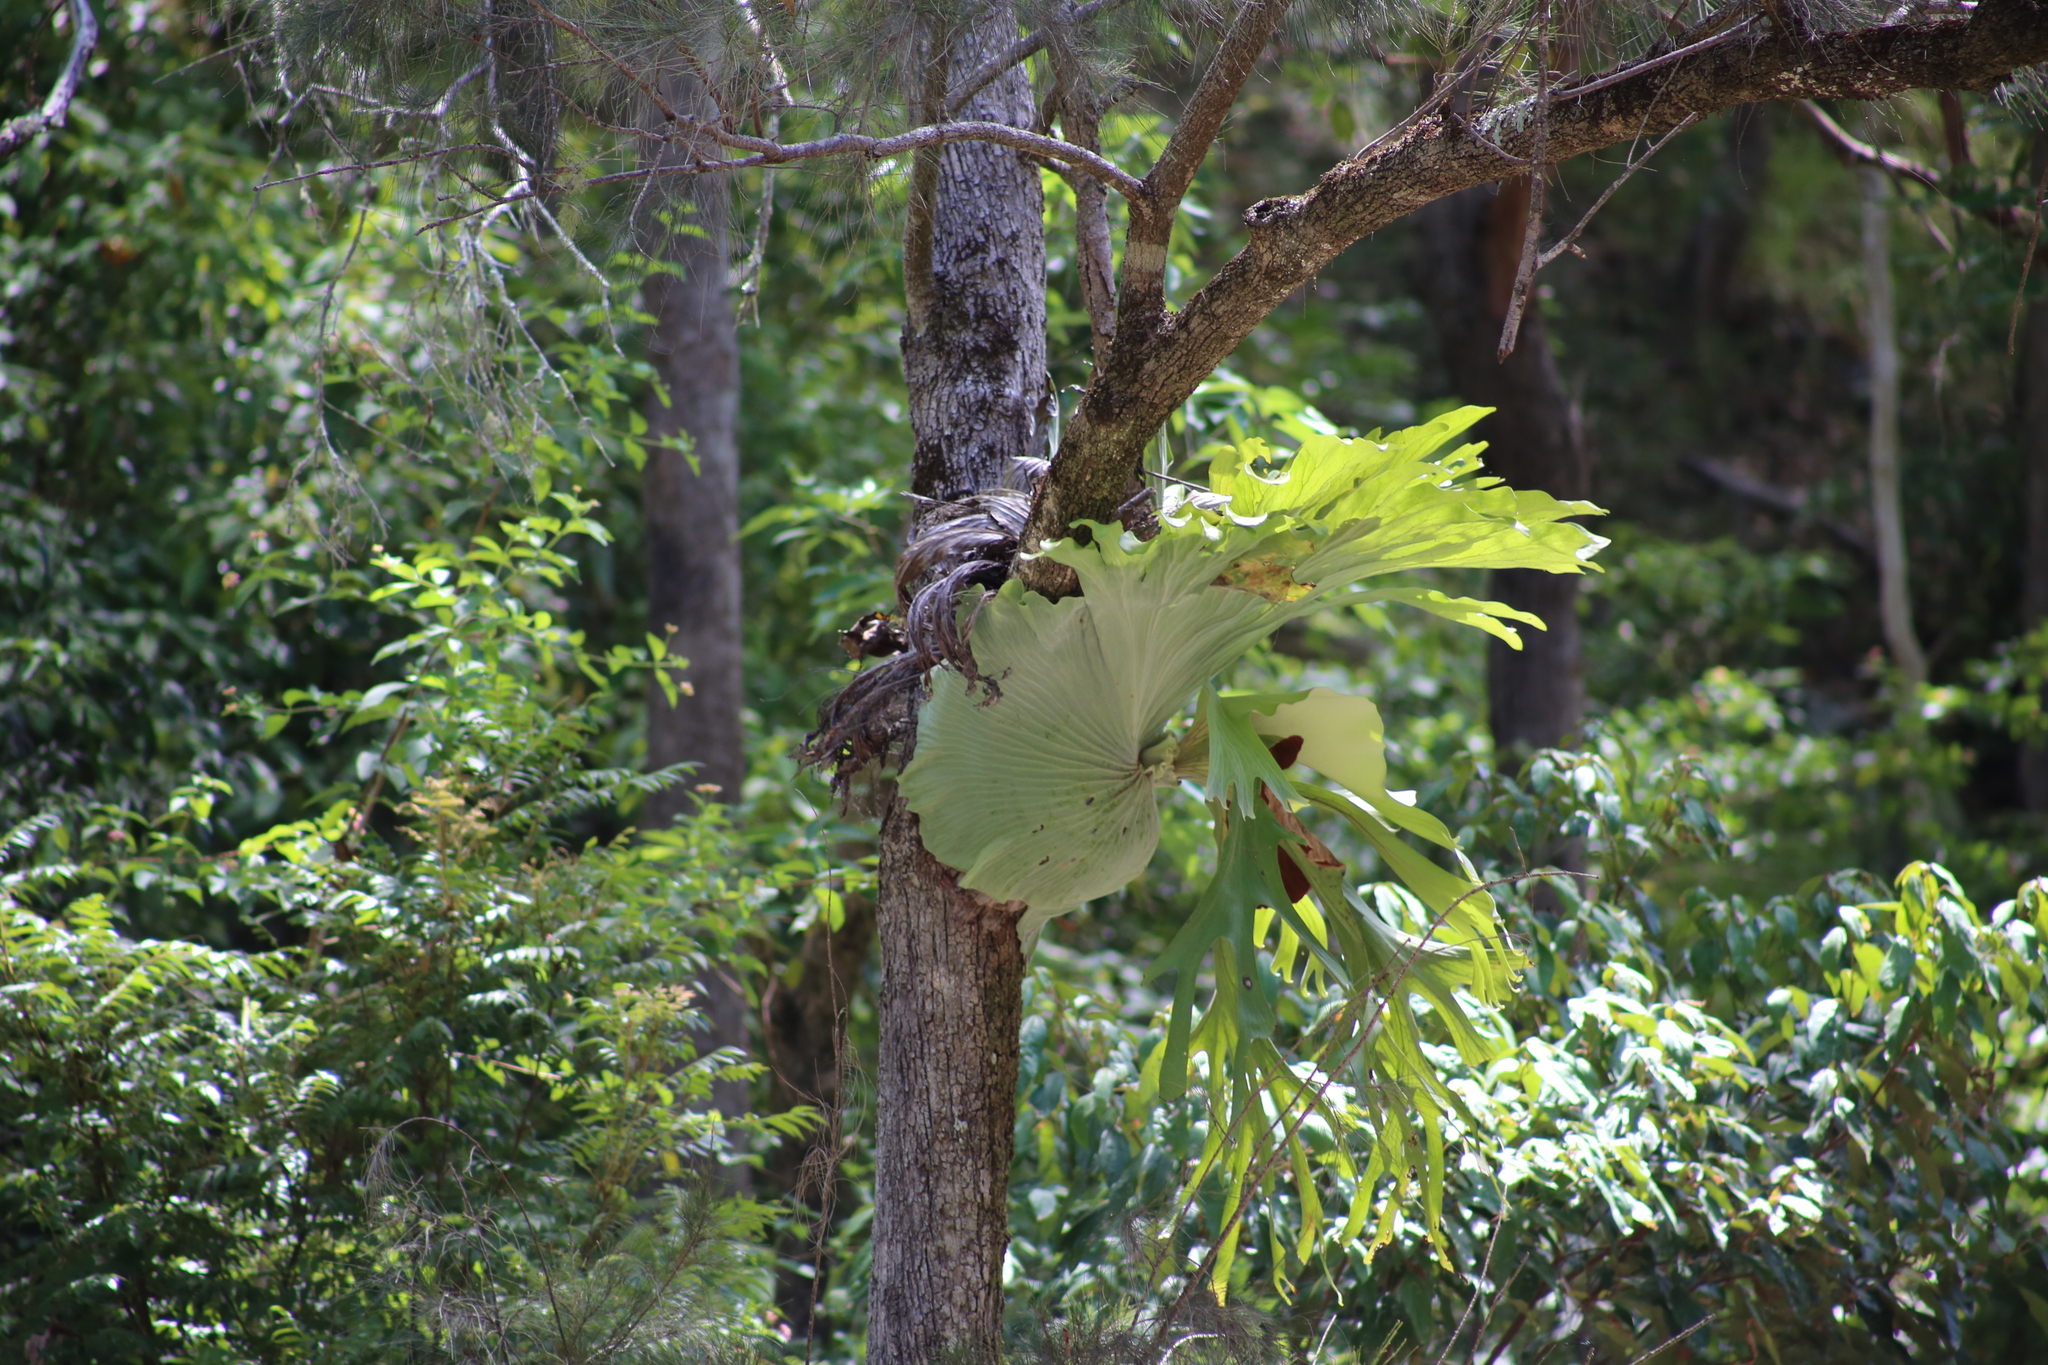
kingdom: Plantae
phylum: Tracheophyta
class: Polypodiopsida
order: Polypodiales
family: Polypodiaceae
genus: Platycerium
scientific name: Platycerium superbum
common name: Staghorn fern
